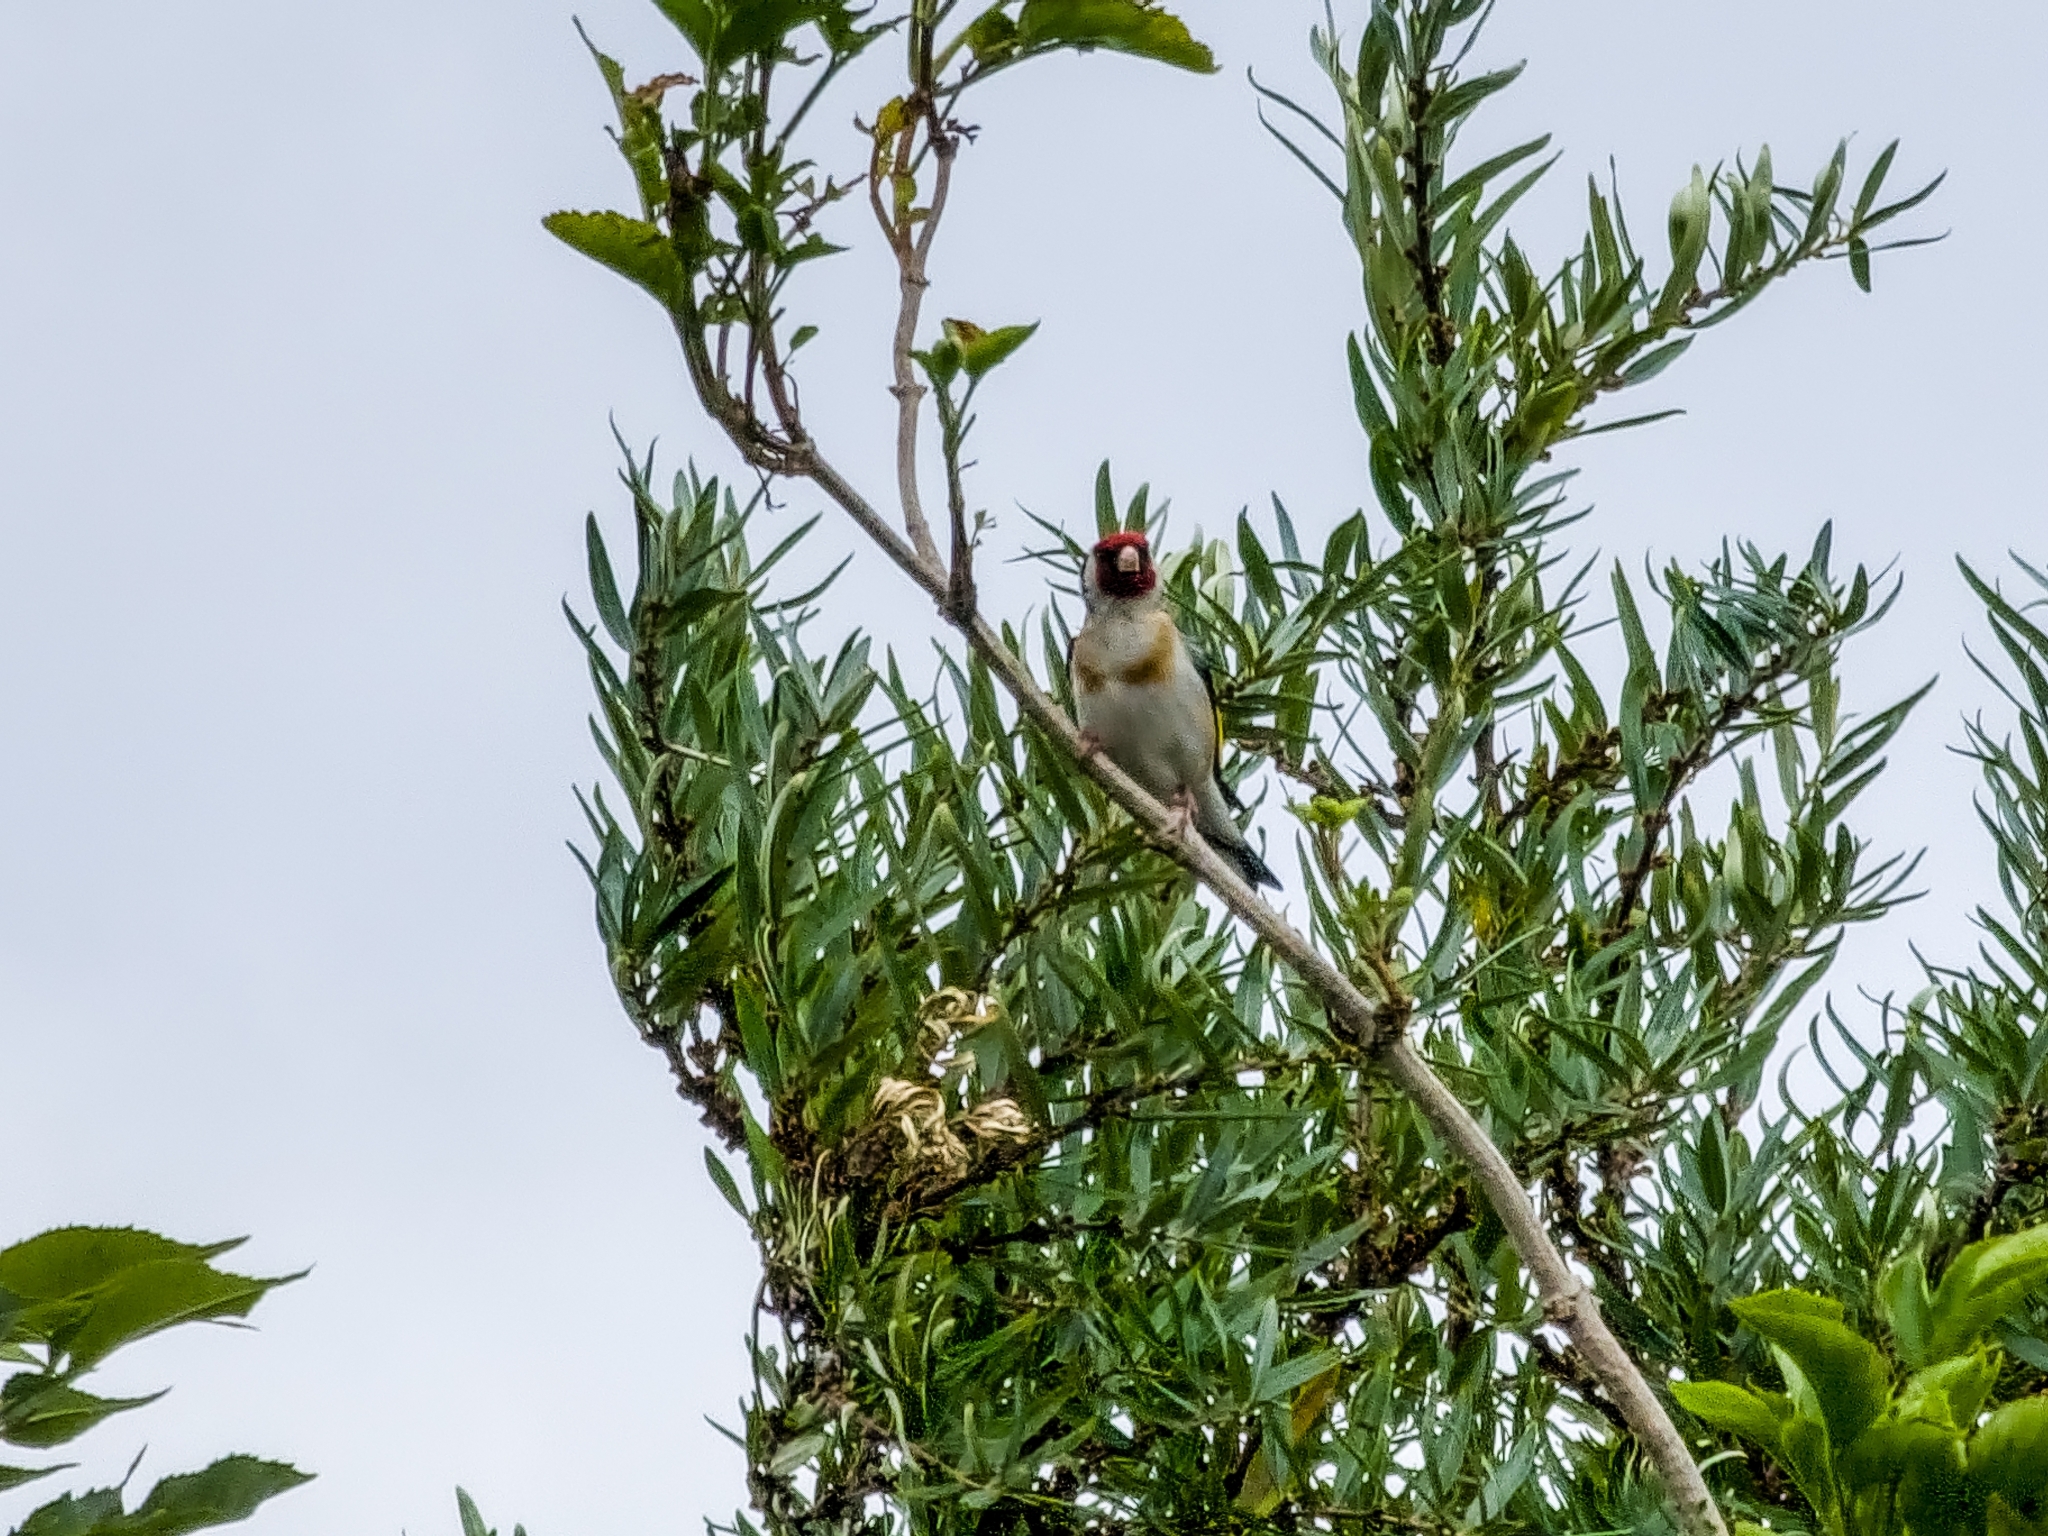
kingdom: Animalia
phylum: Chordata
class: Aves
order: Passeriformes
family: Fringillidae
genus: Carduelis
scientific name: Carduelis carduelis
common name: European goldfinch
